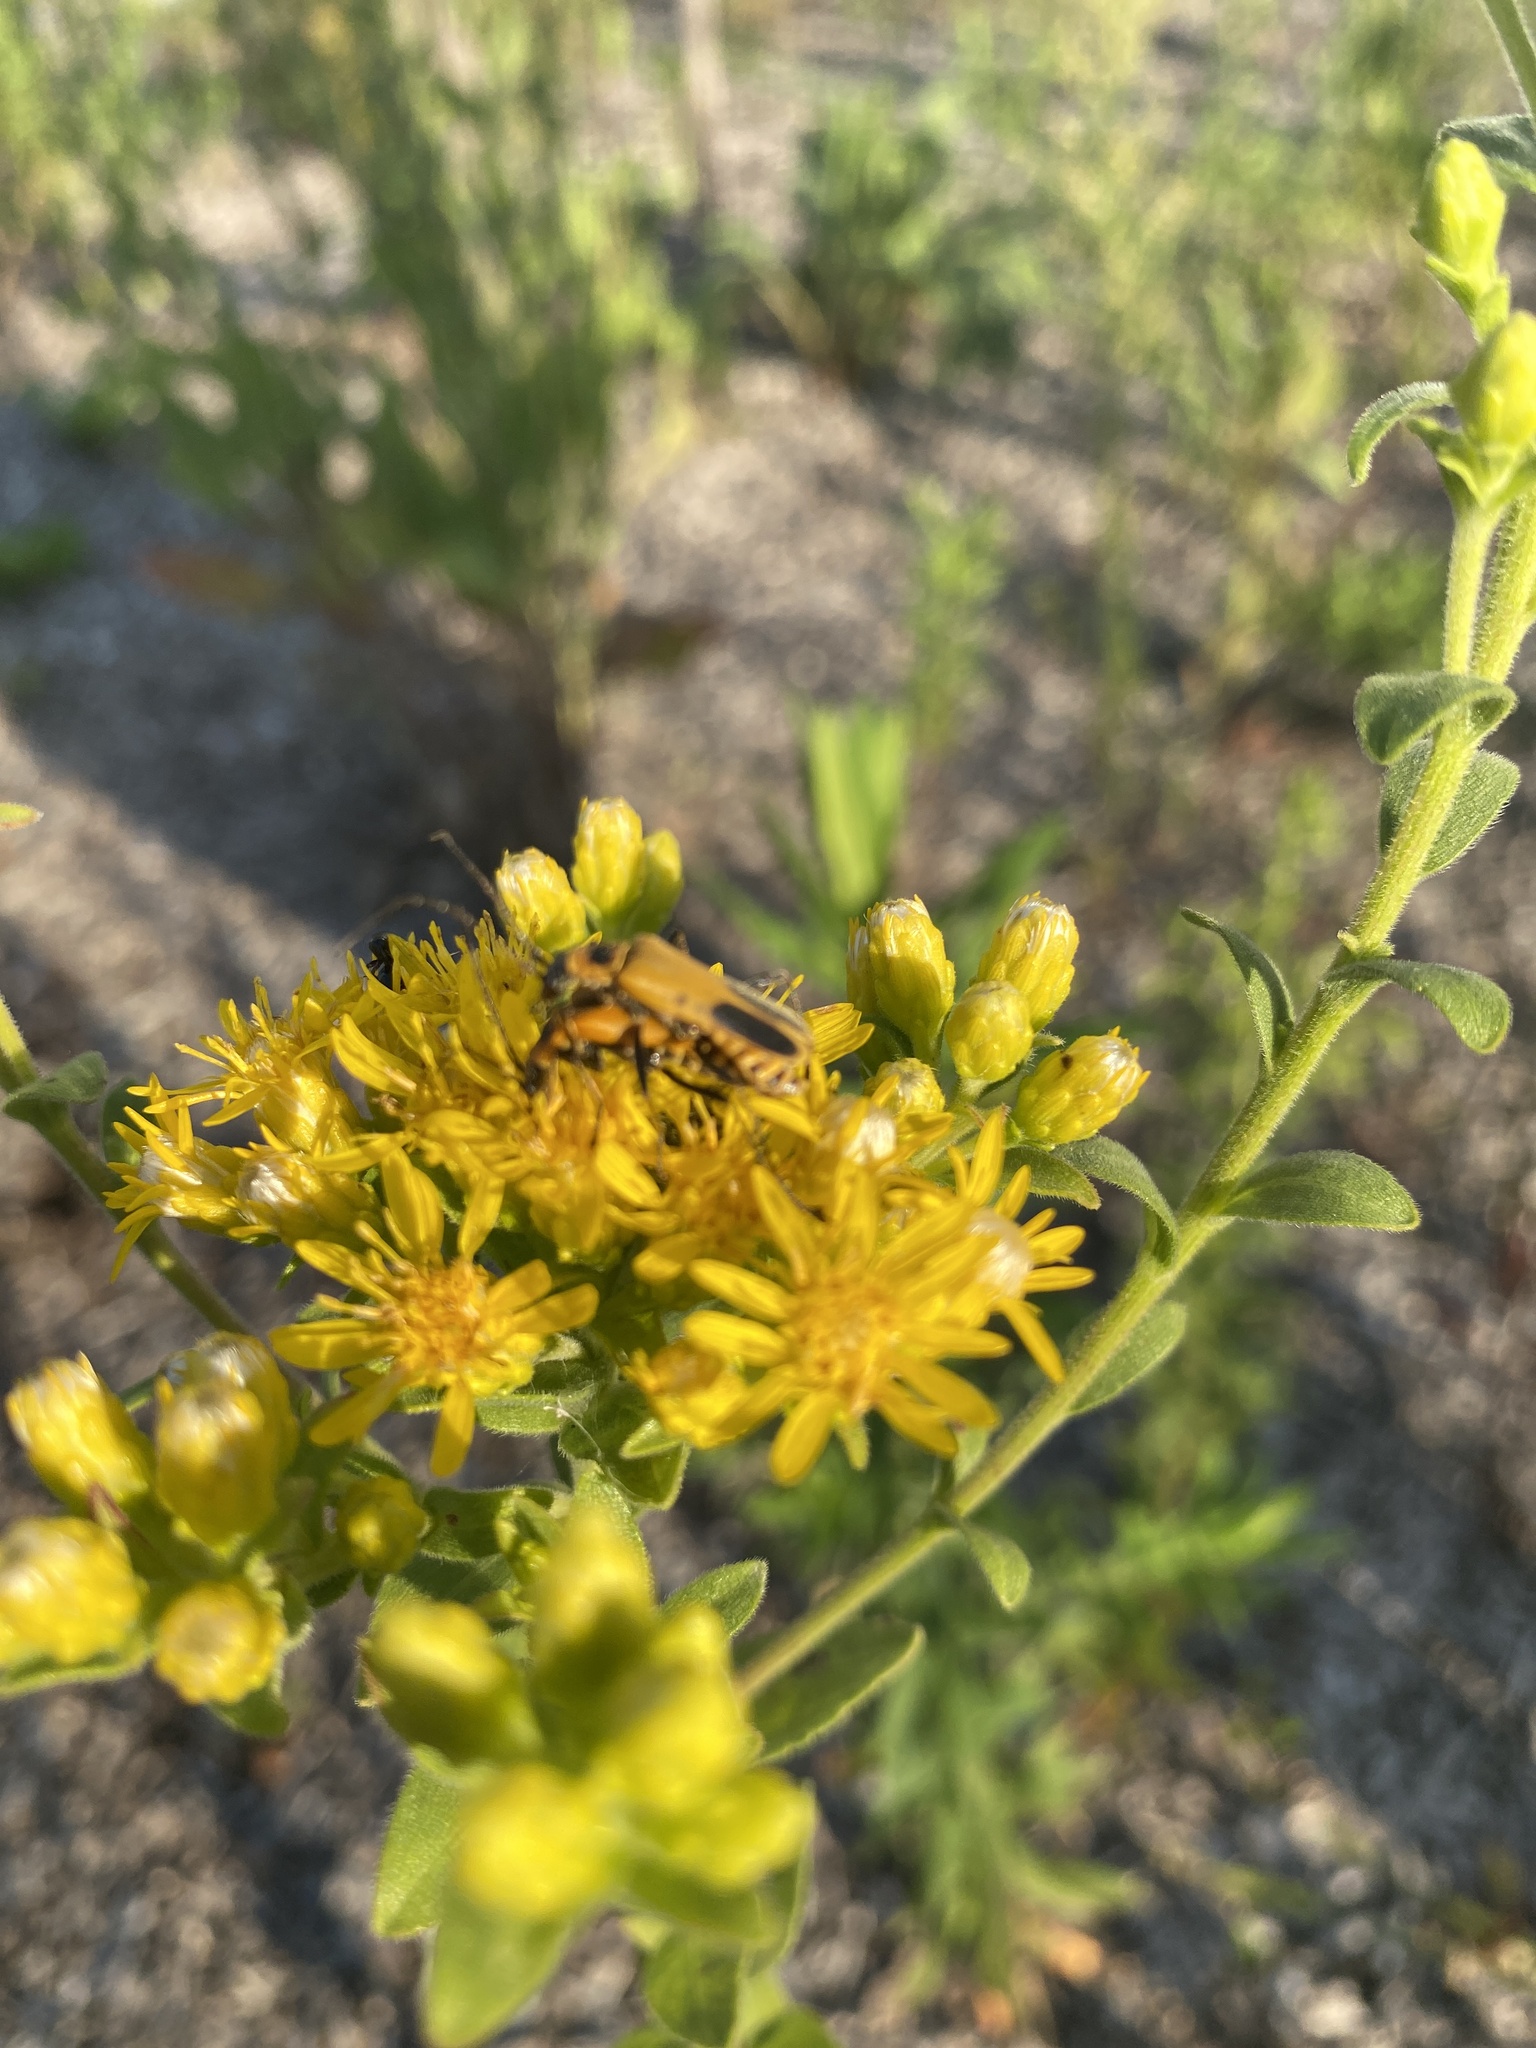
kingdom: Animalia
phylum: Arthropoda
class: Insecta
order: Coleoptera
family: Cantharidae
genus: Chauliognathus
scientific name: Chauliognathus pensylvanicus
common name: Goldenrod soldier beetle
